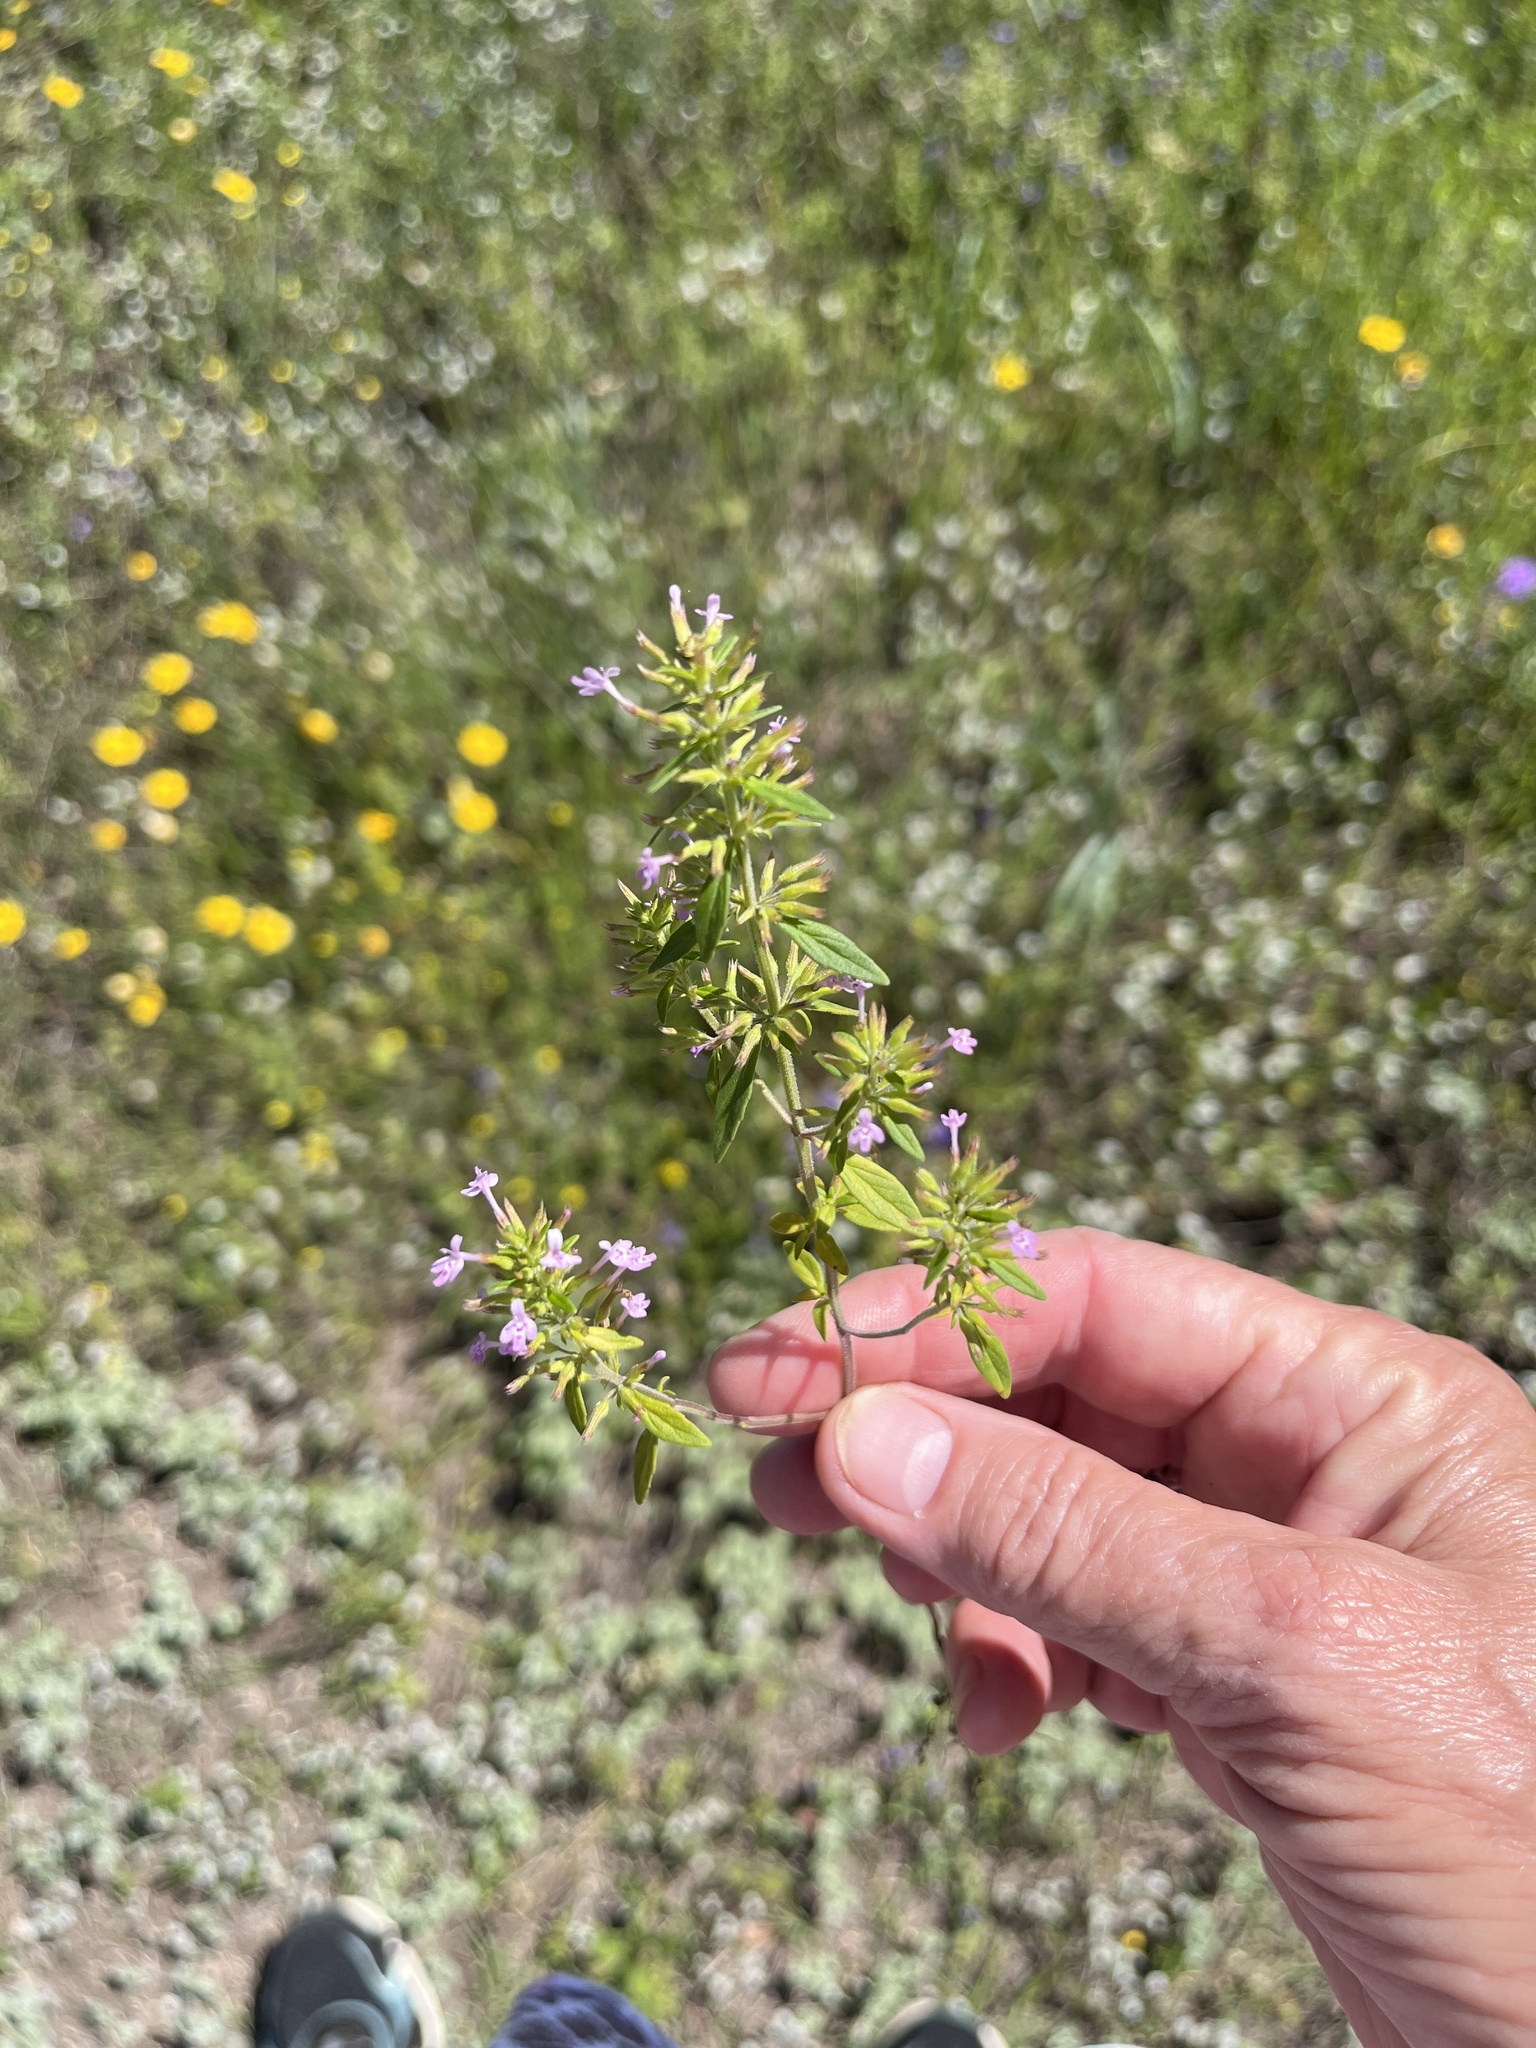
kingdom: Plantae
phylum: Tracheophyta
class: Magnoliopsida
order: Lamiales
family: Lamiaceae
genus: Hedeoma
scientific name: Hedeoma acinoides
